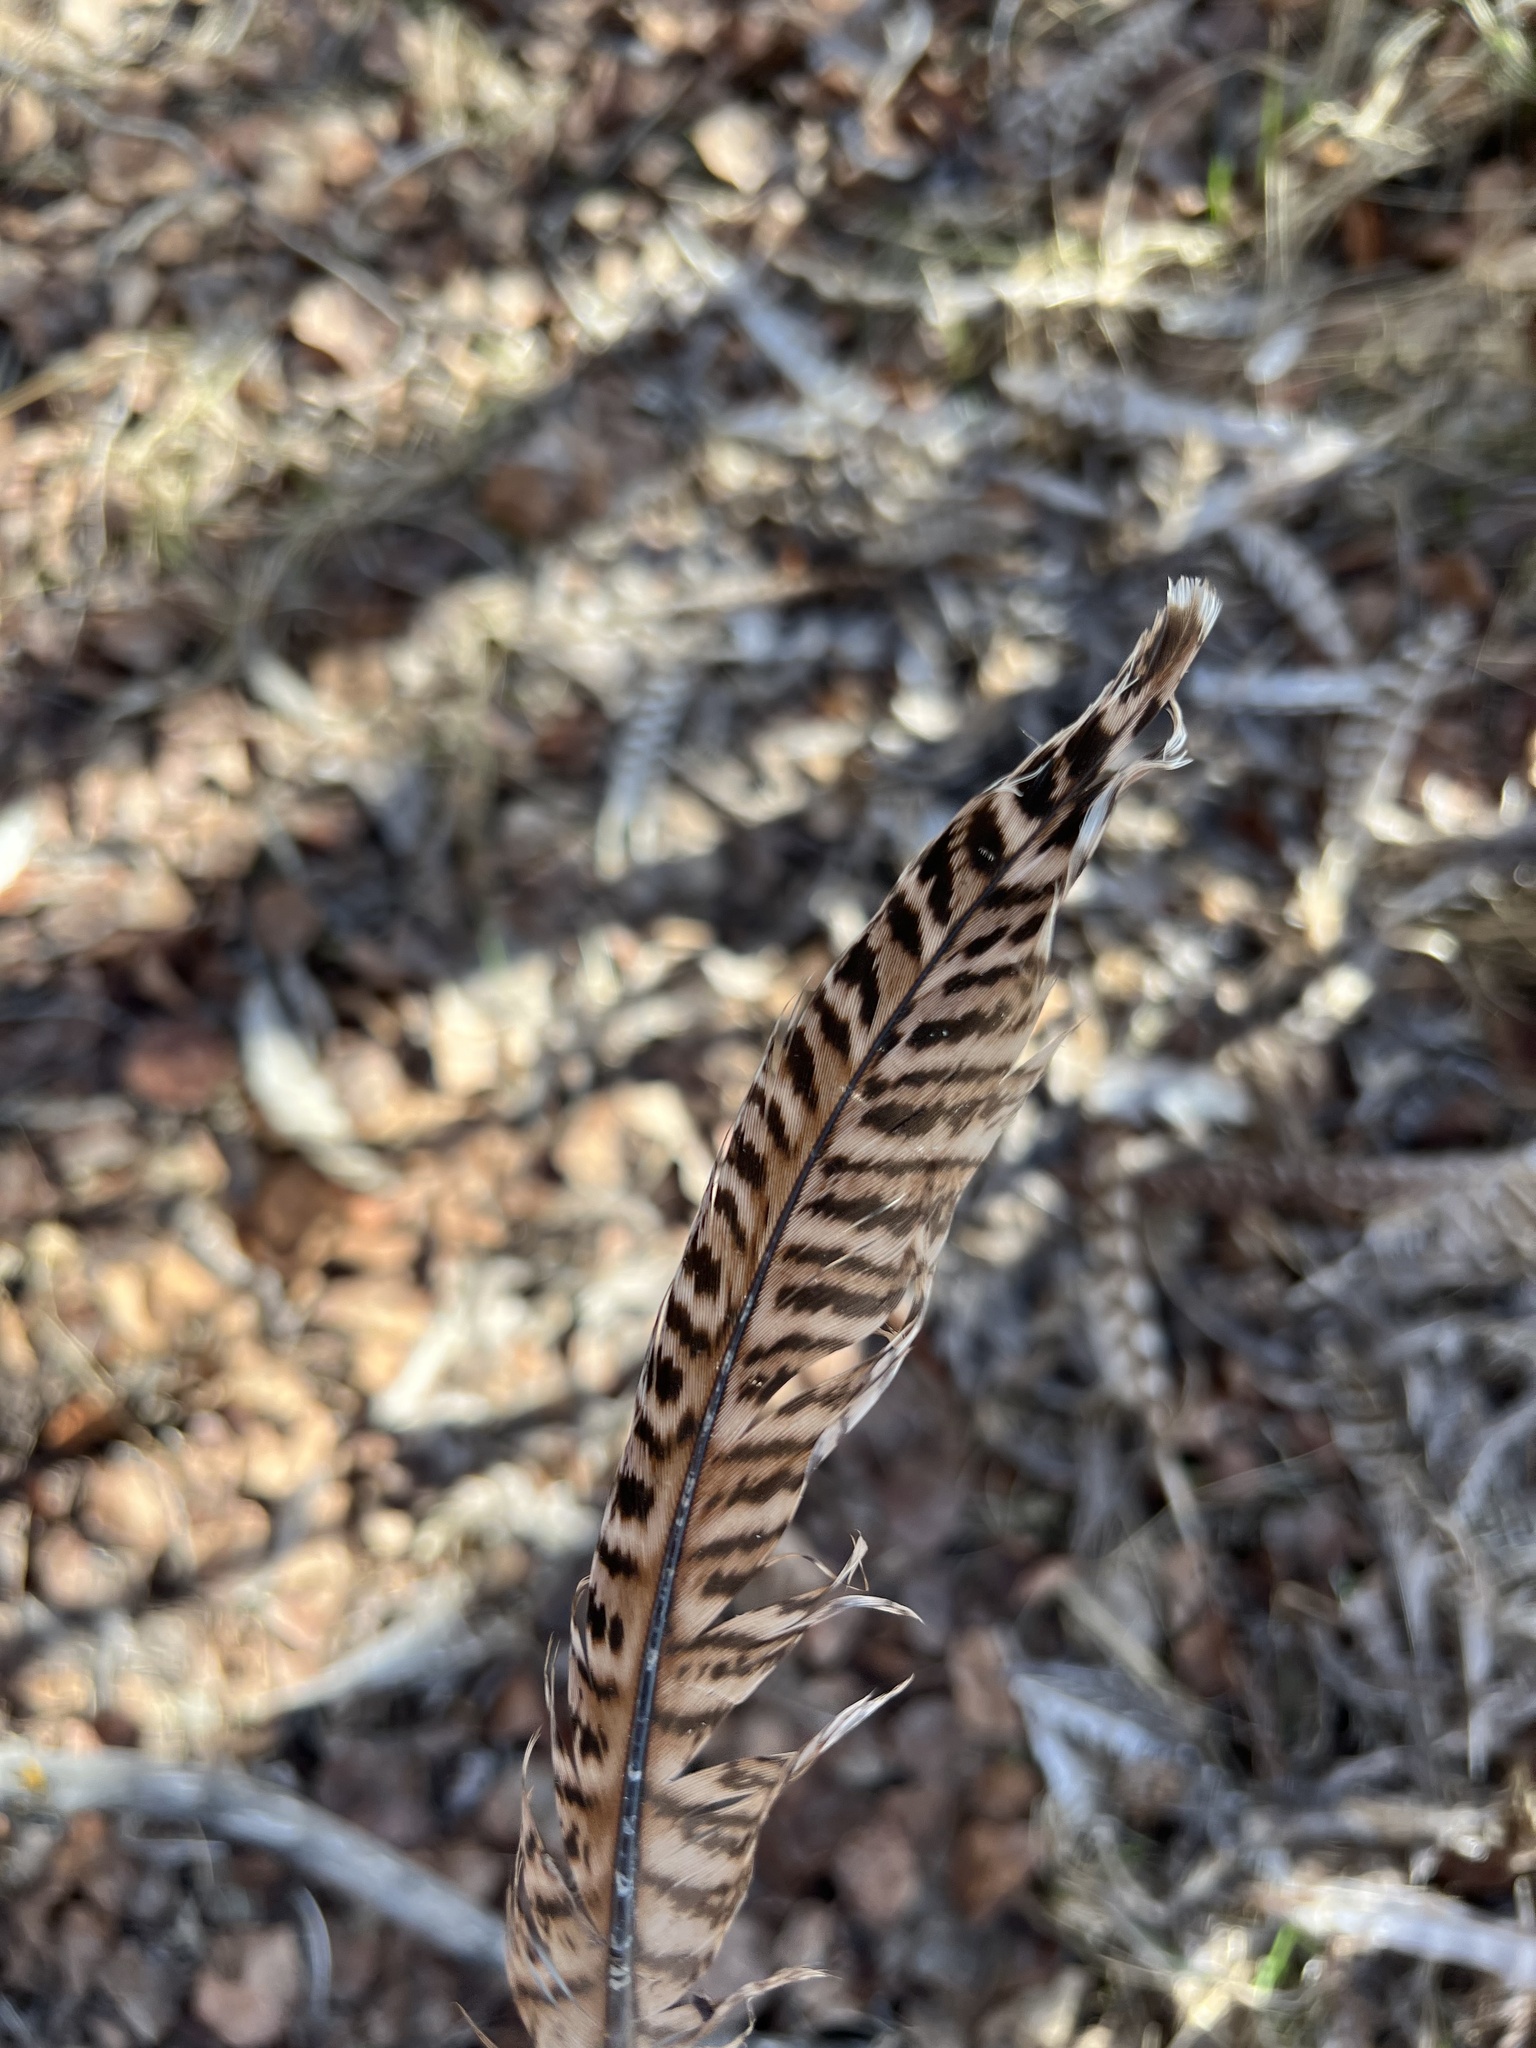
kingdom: Animalia
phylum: Chordata
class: Aves
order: Galliformes
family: Phasianidae
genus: Phasianus
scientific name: Phasianus colchicus
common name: Common pheasant
